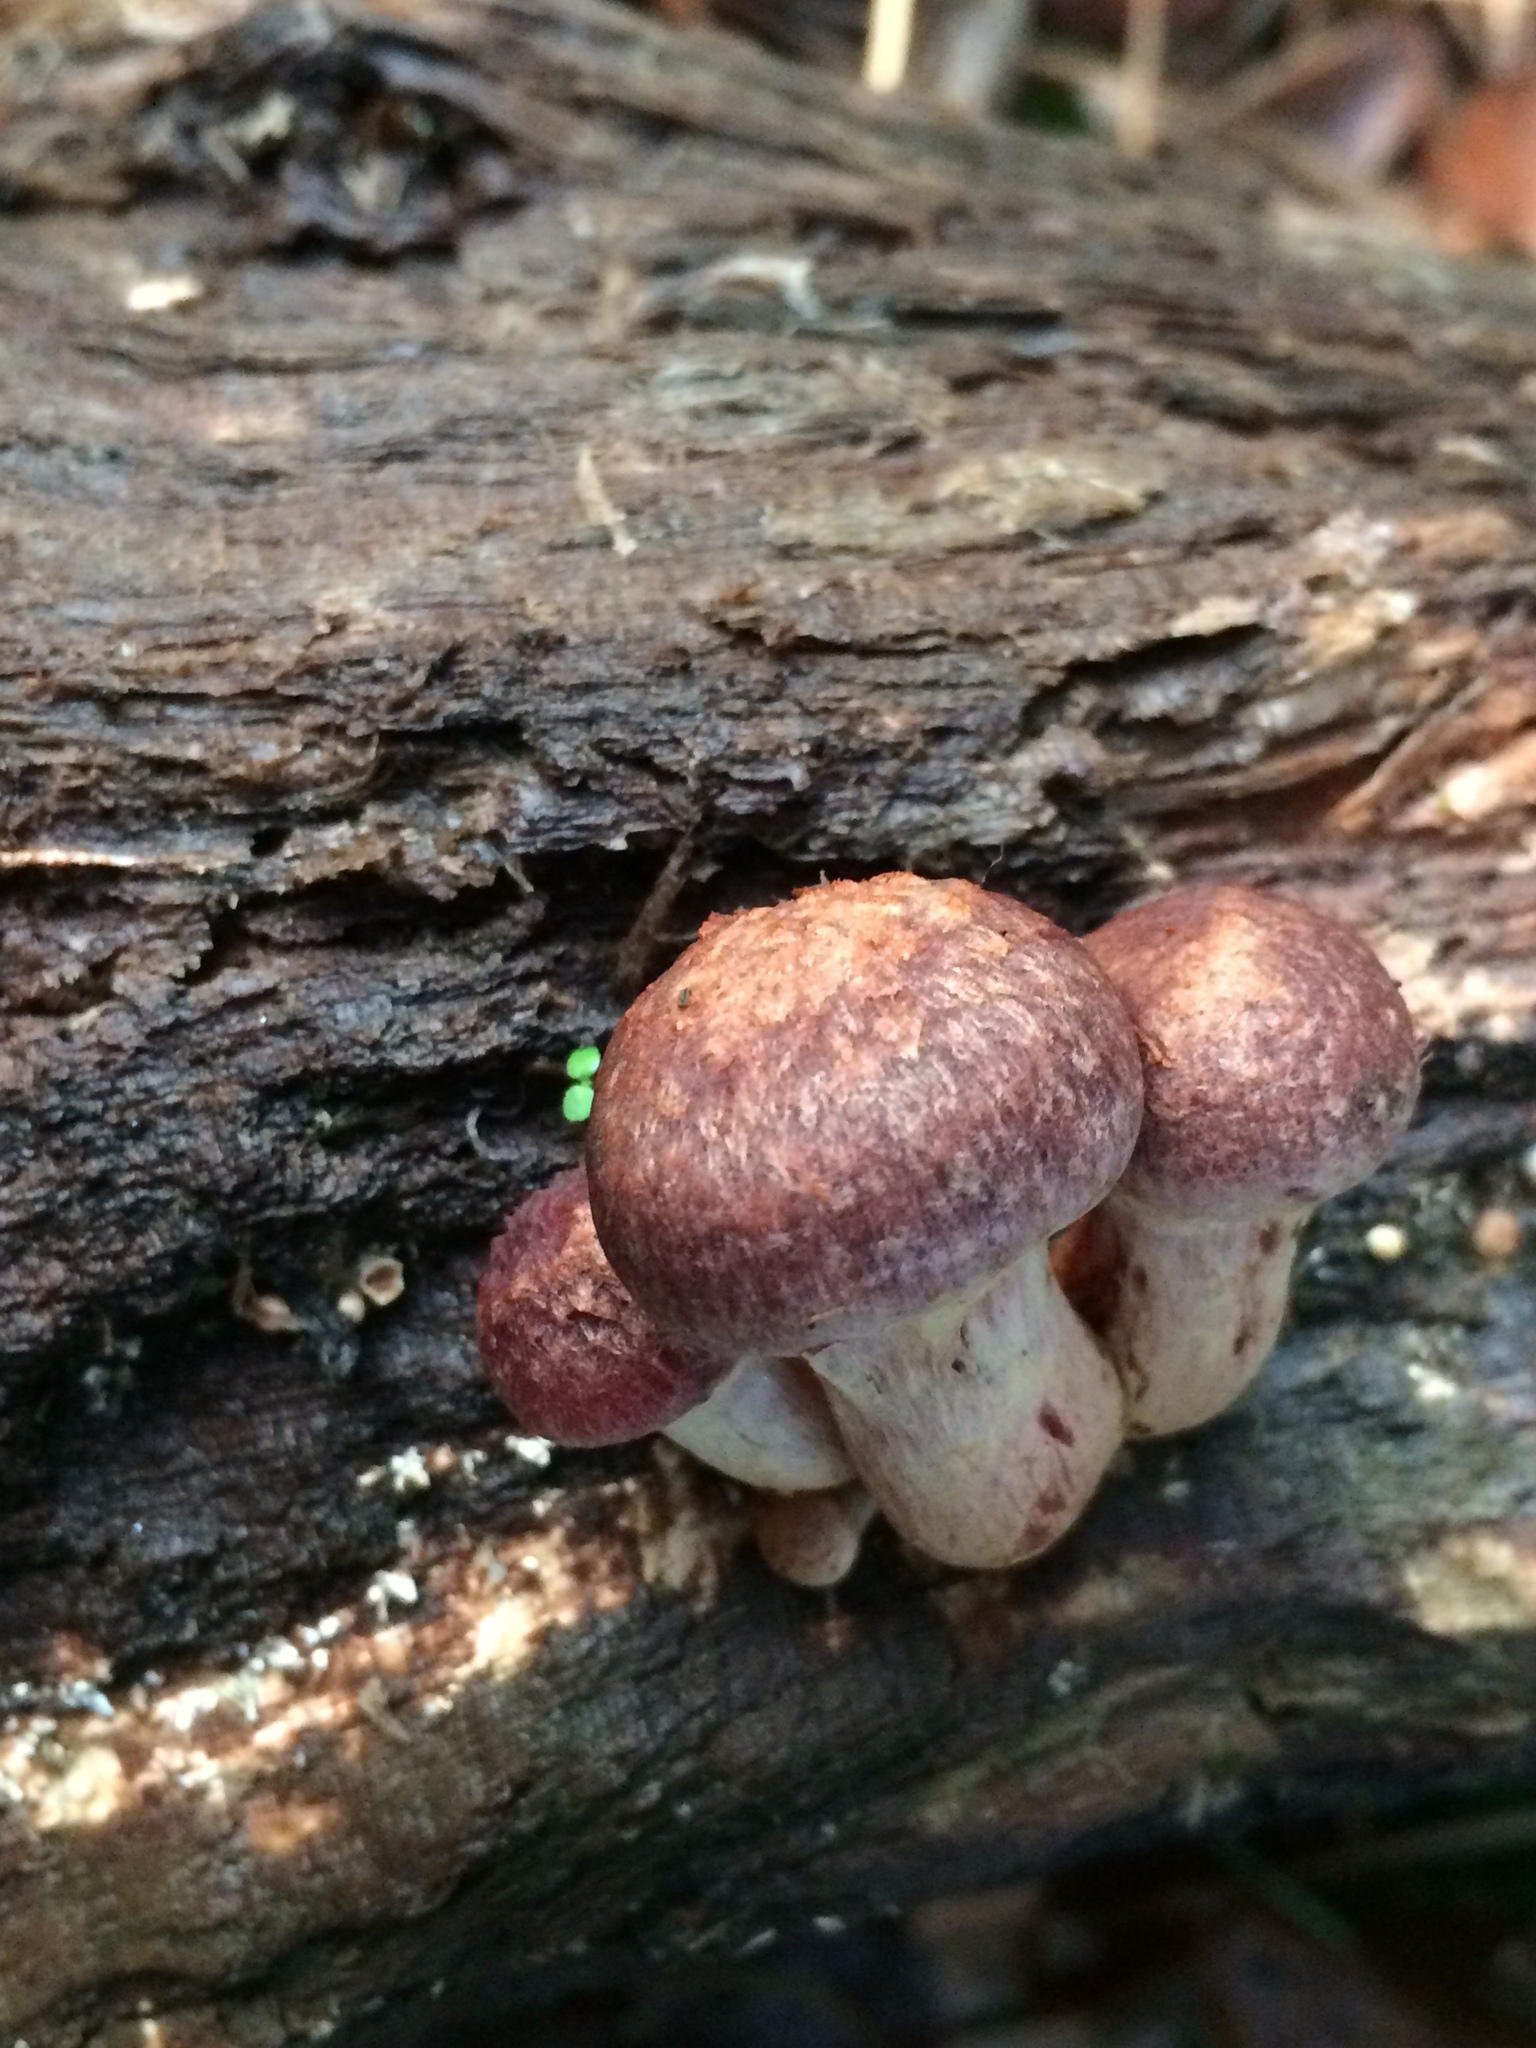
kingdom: Fungi
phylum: Basidiomycota
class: Agaricomycetes
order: Agaricales
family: Hymenogastraceae
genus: Gymnopilus
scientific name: Gymnopilus thiersii
